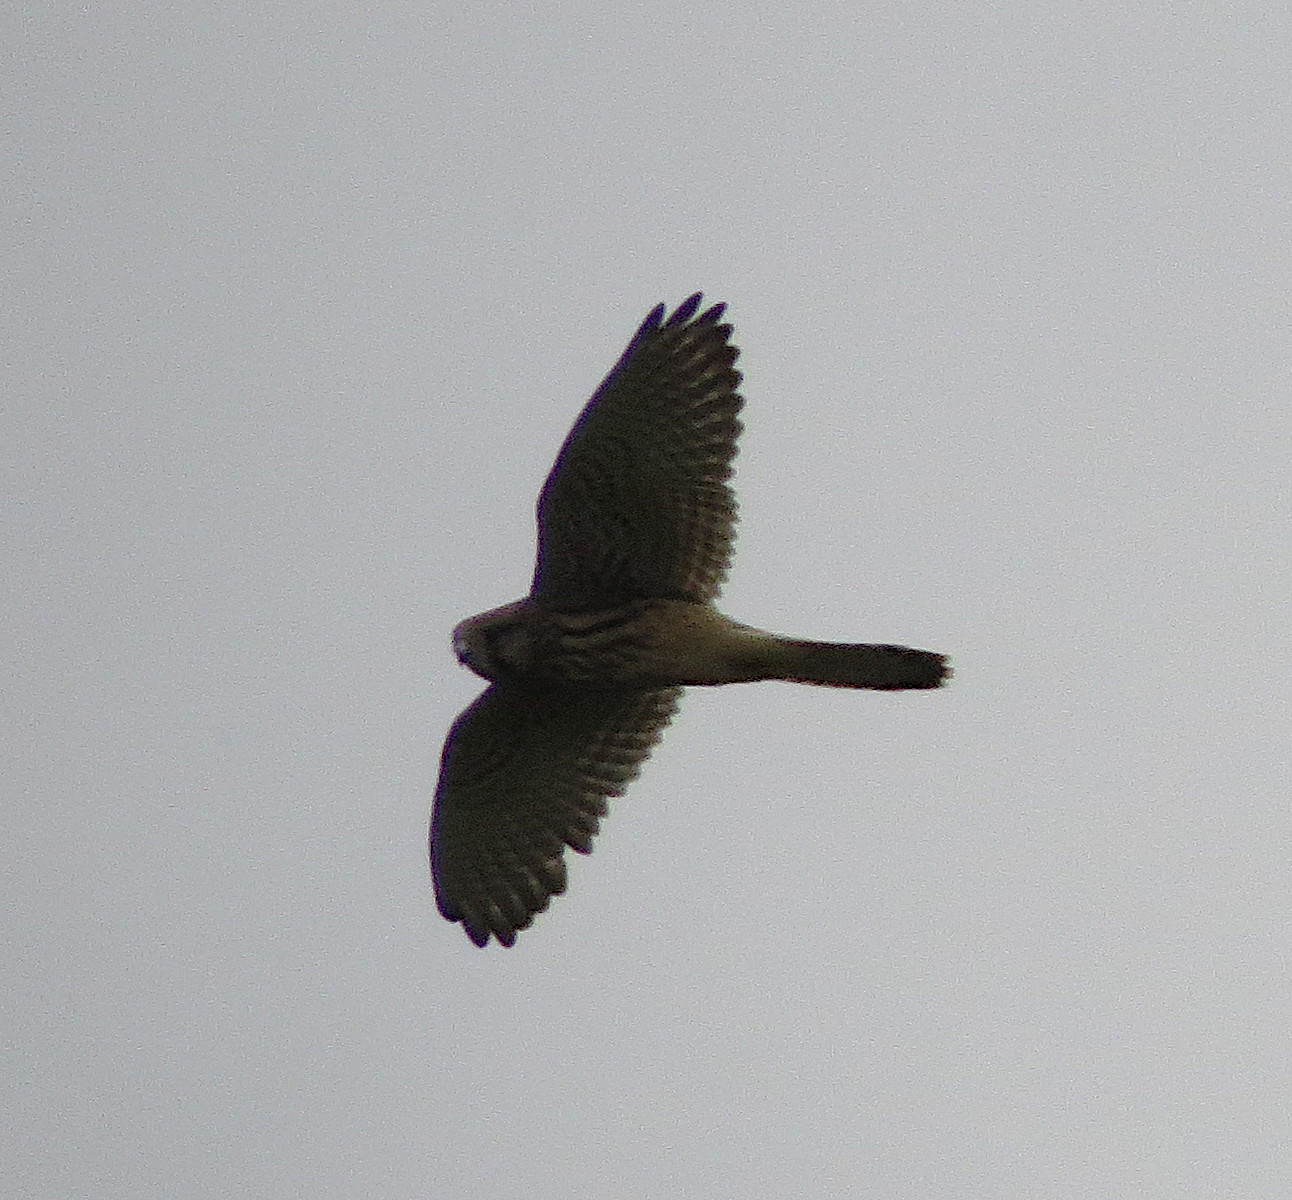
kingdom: Animalia
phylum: Chordata
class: Aves
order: Falconiformes
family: Falconidae
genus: Falco
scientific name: Falco tinnunculus
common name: Common kestrel
